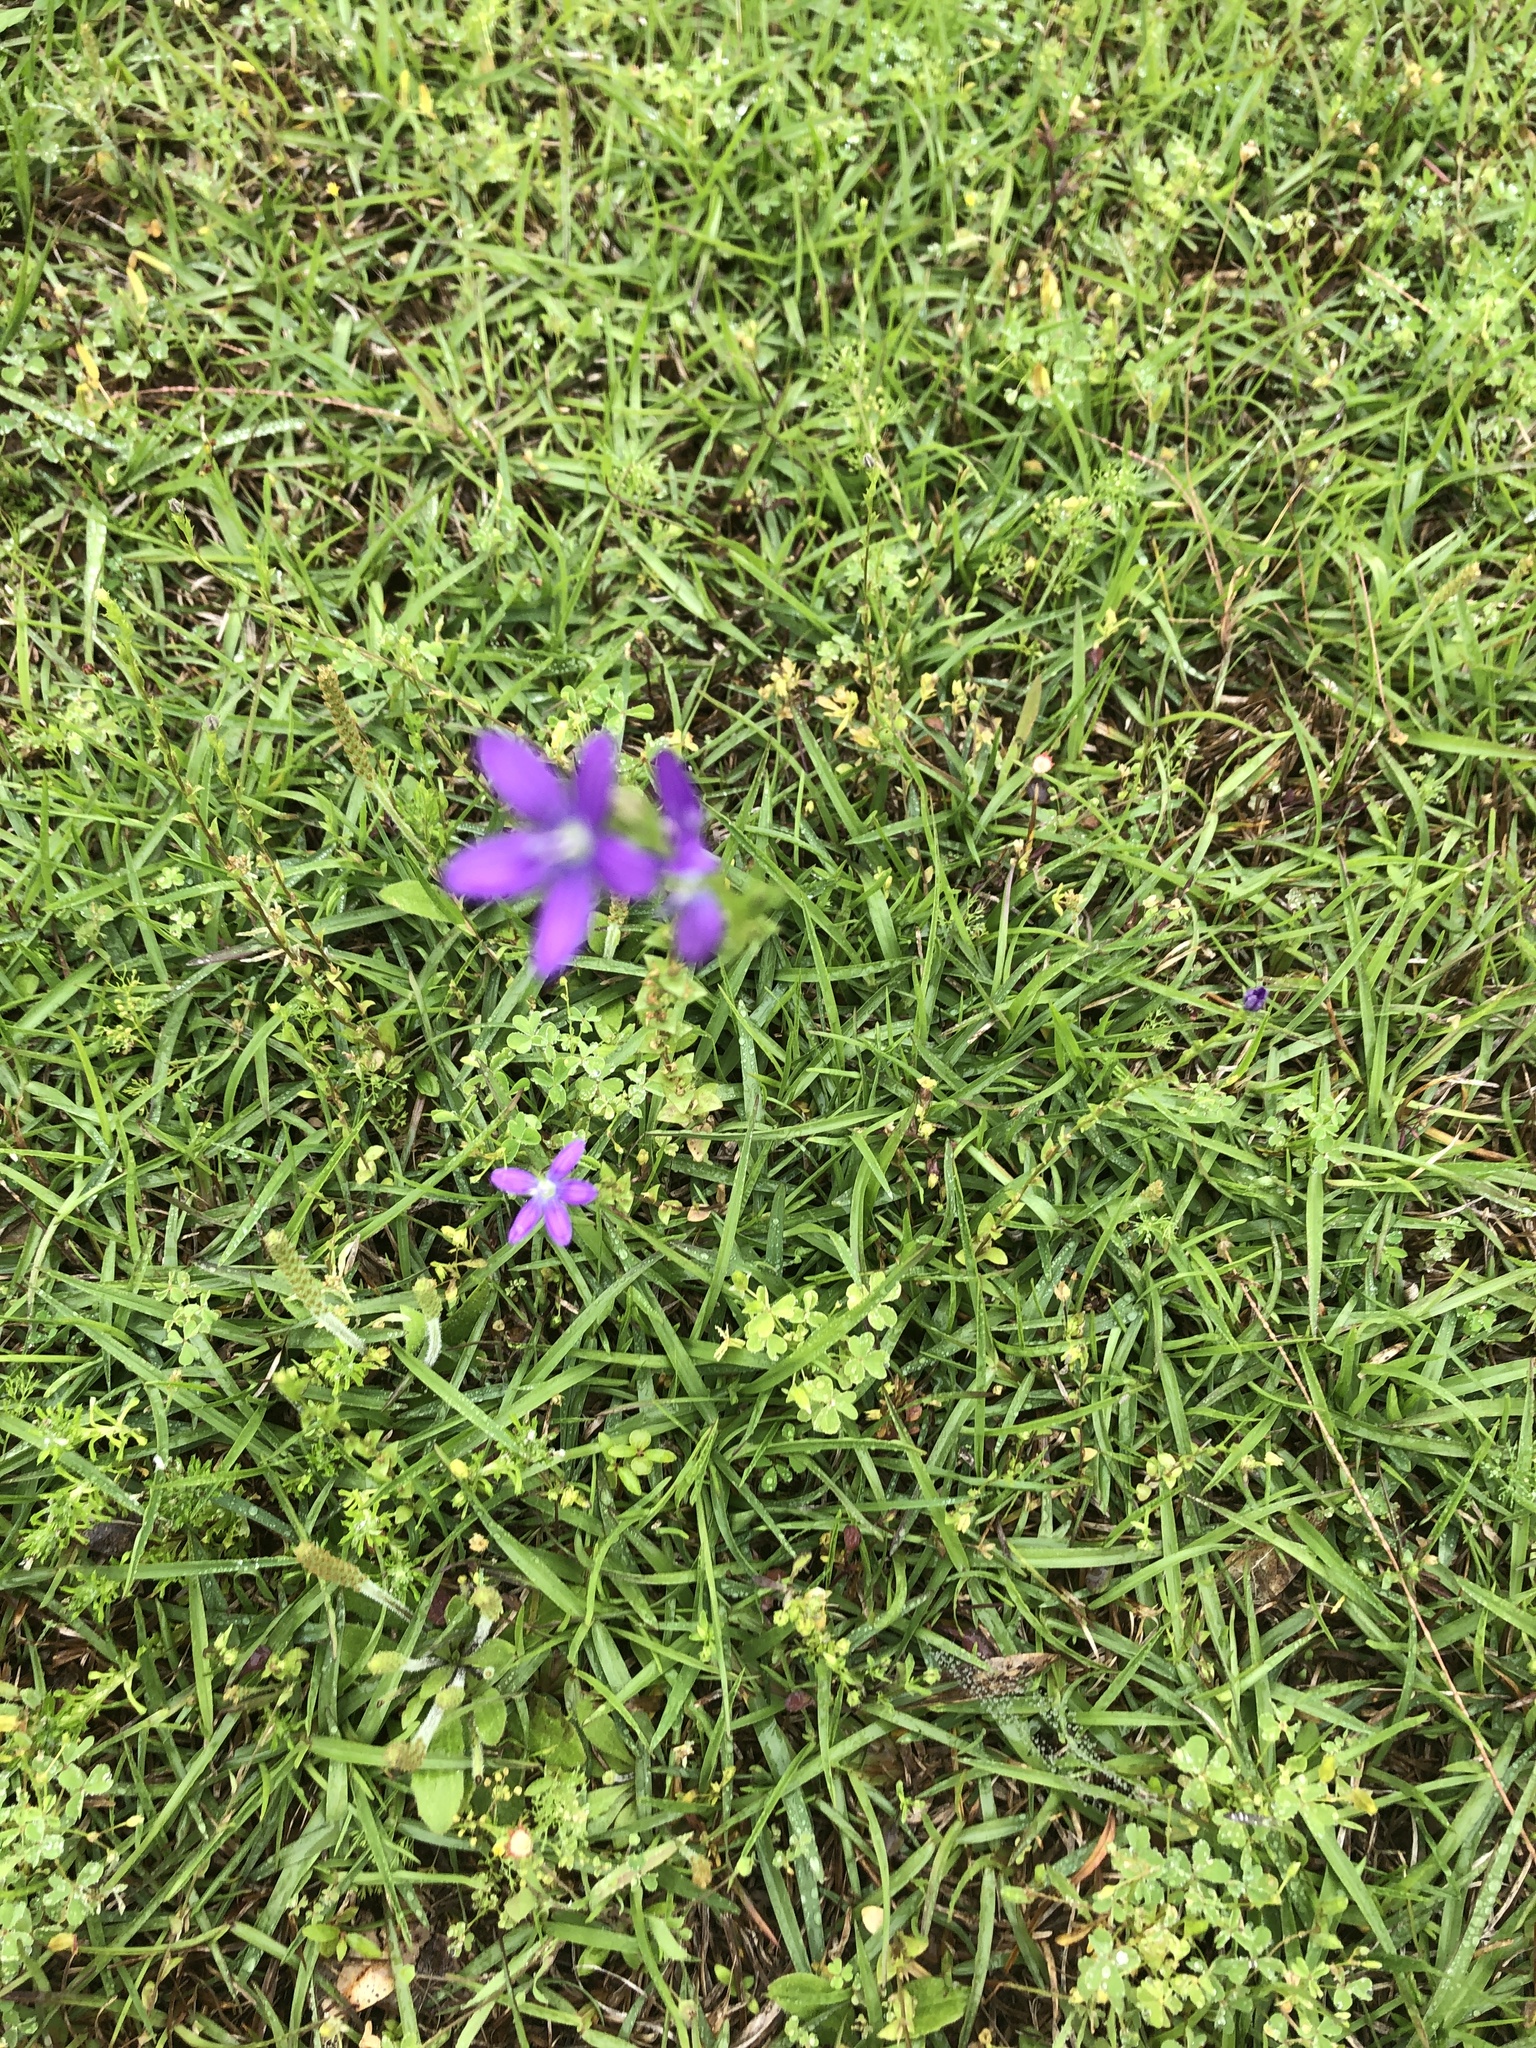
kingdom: Plantae
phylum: Tracheophyta
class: Magnoliopsida
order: Asterales
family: Campanulaceae
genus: Triodanis
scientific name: Triodanis perfoliata
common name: Clasping venus' looking-glass
